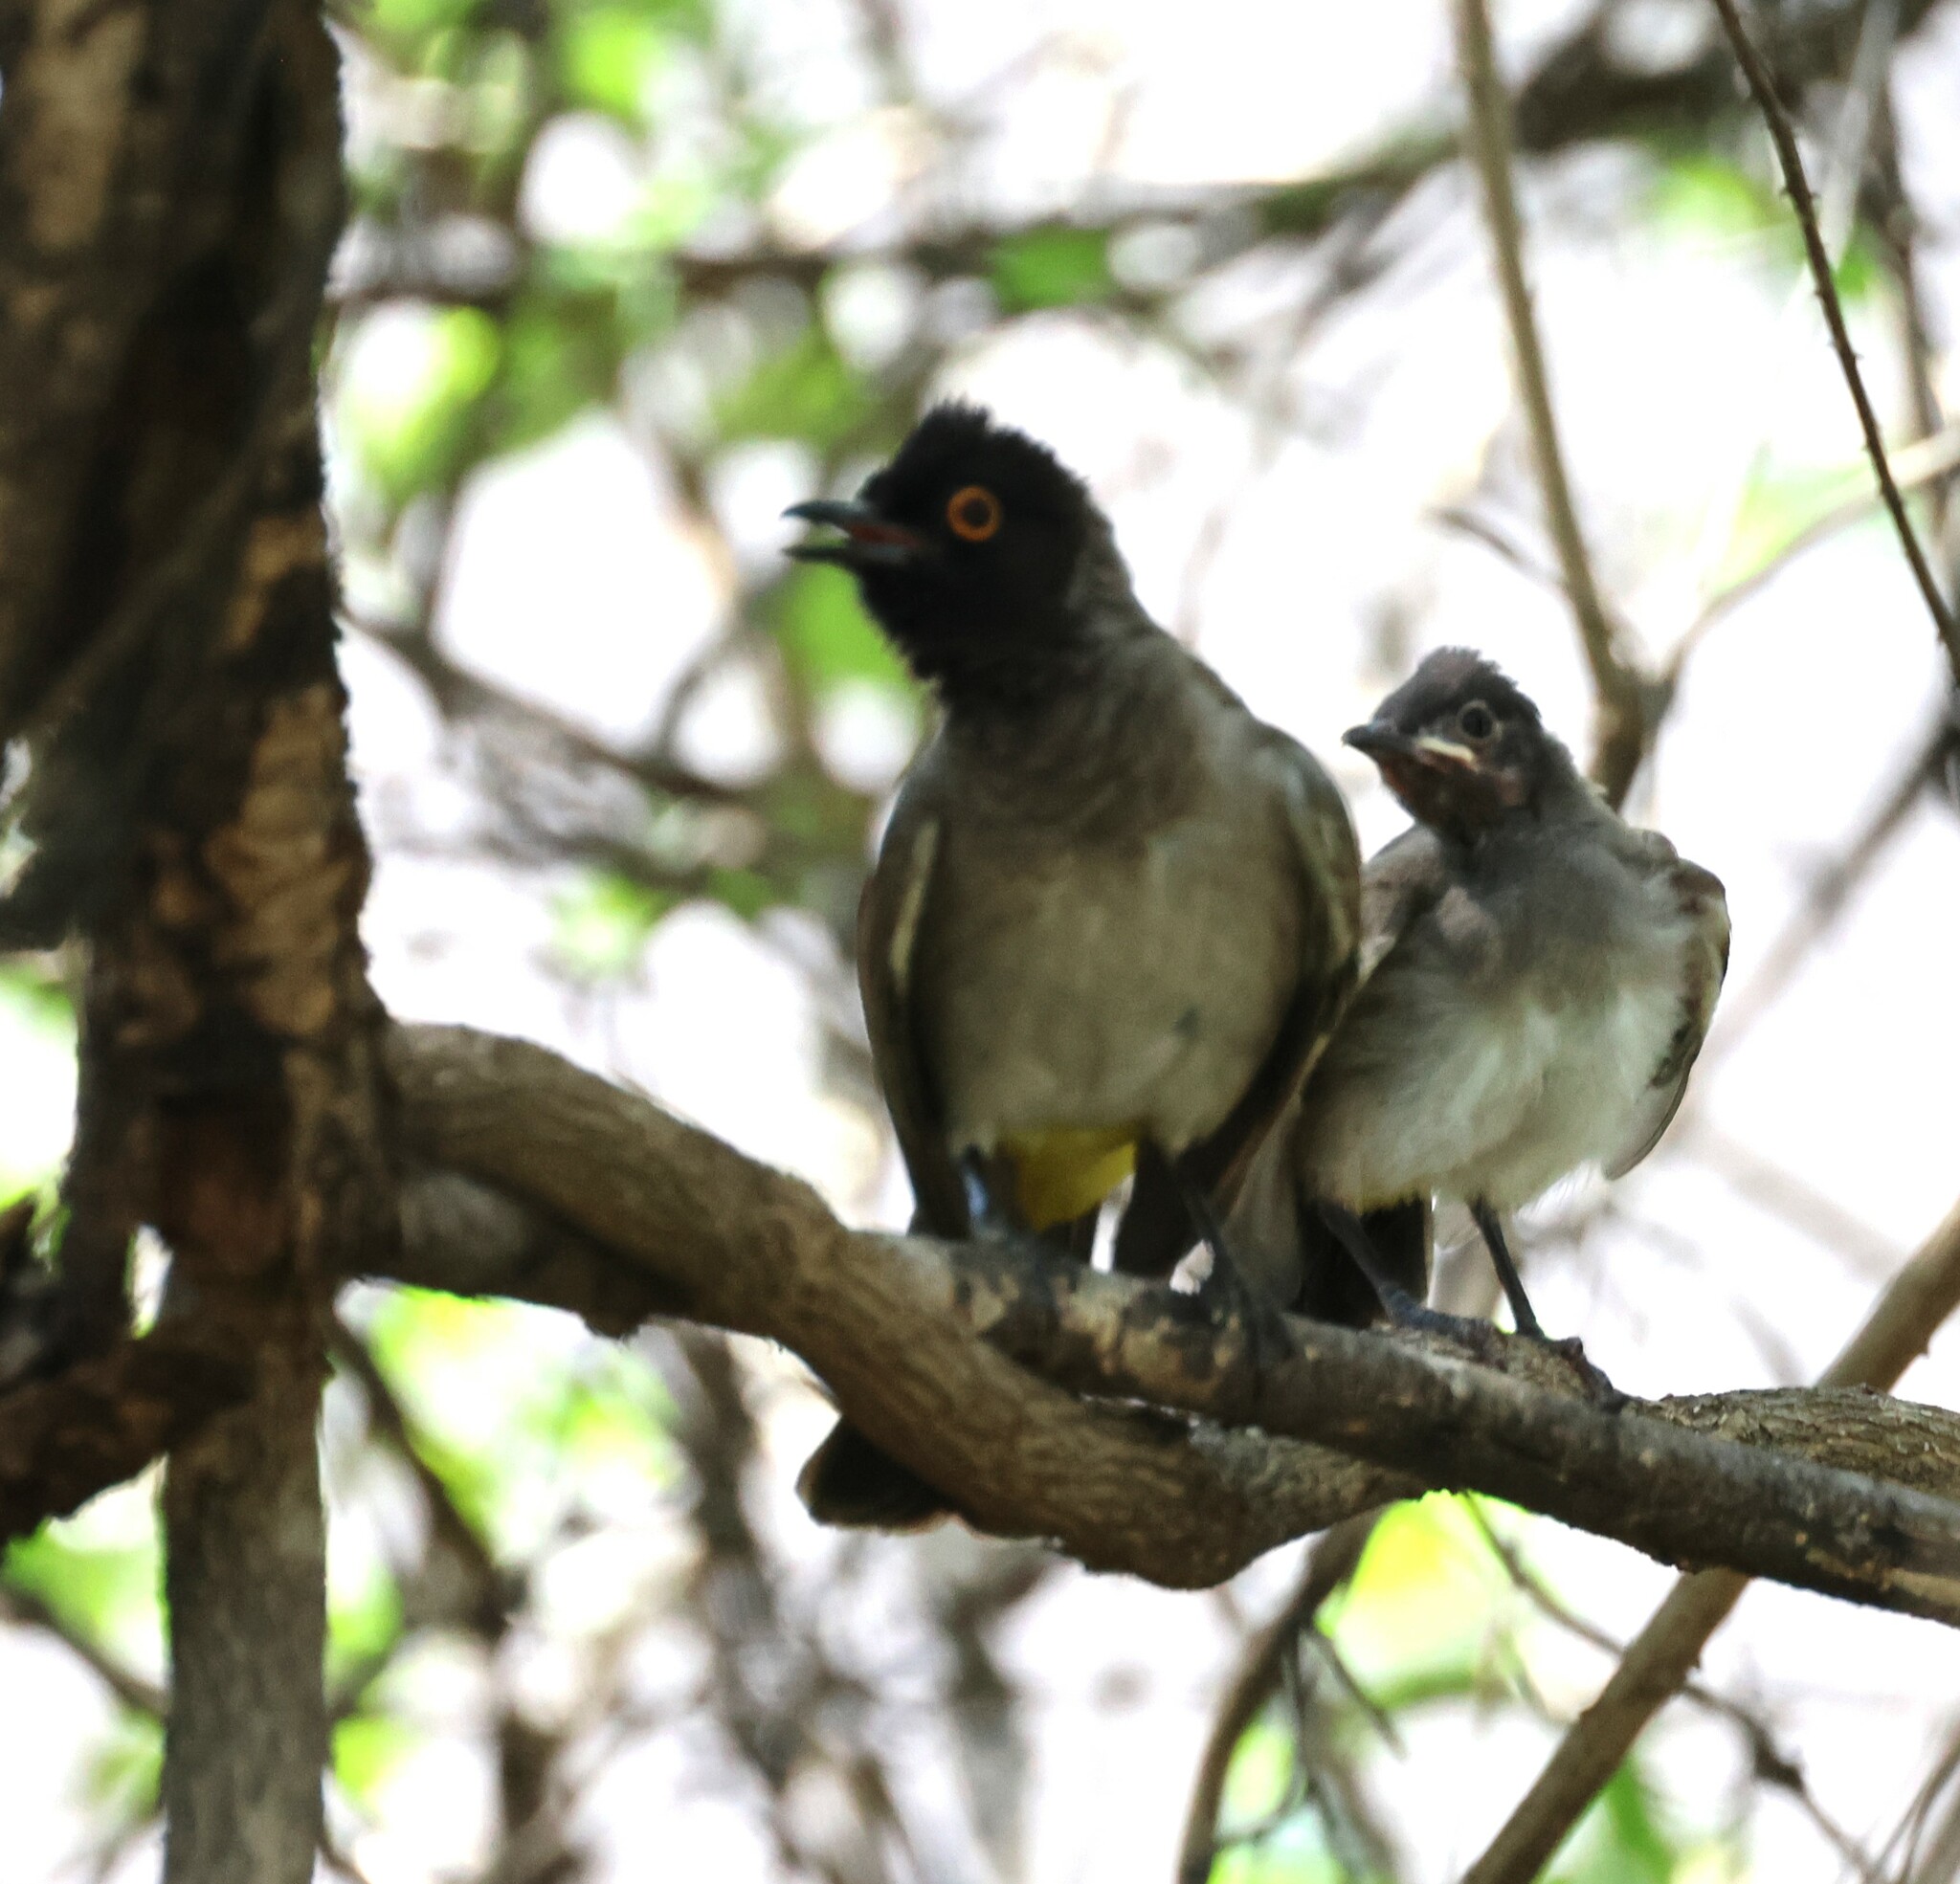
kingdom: Animalia
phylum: Chordata
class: Aves
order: Passeriformes
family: Pycnonotidae
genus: Pycnonotus
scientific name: Pycnonotus nigricans
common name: African red-eyed bulbul
